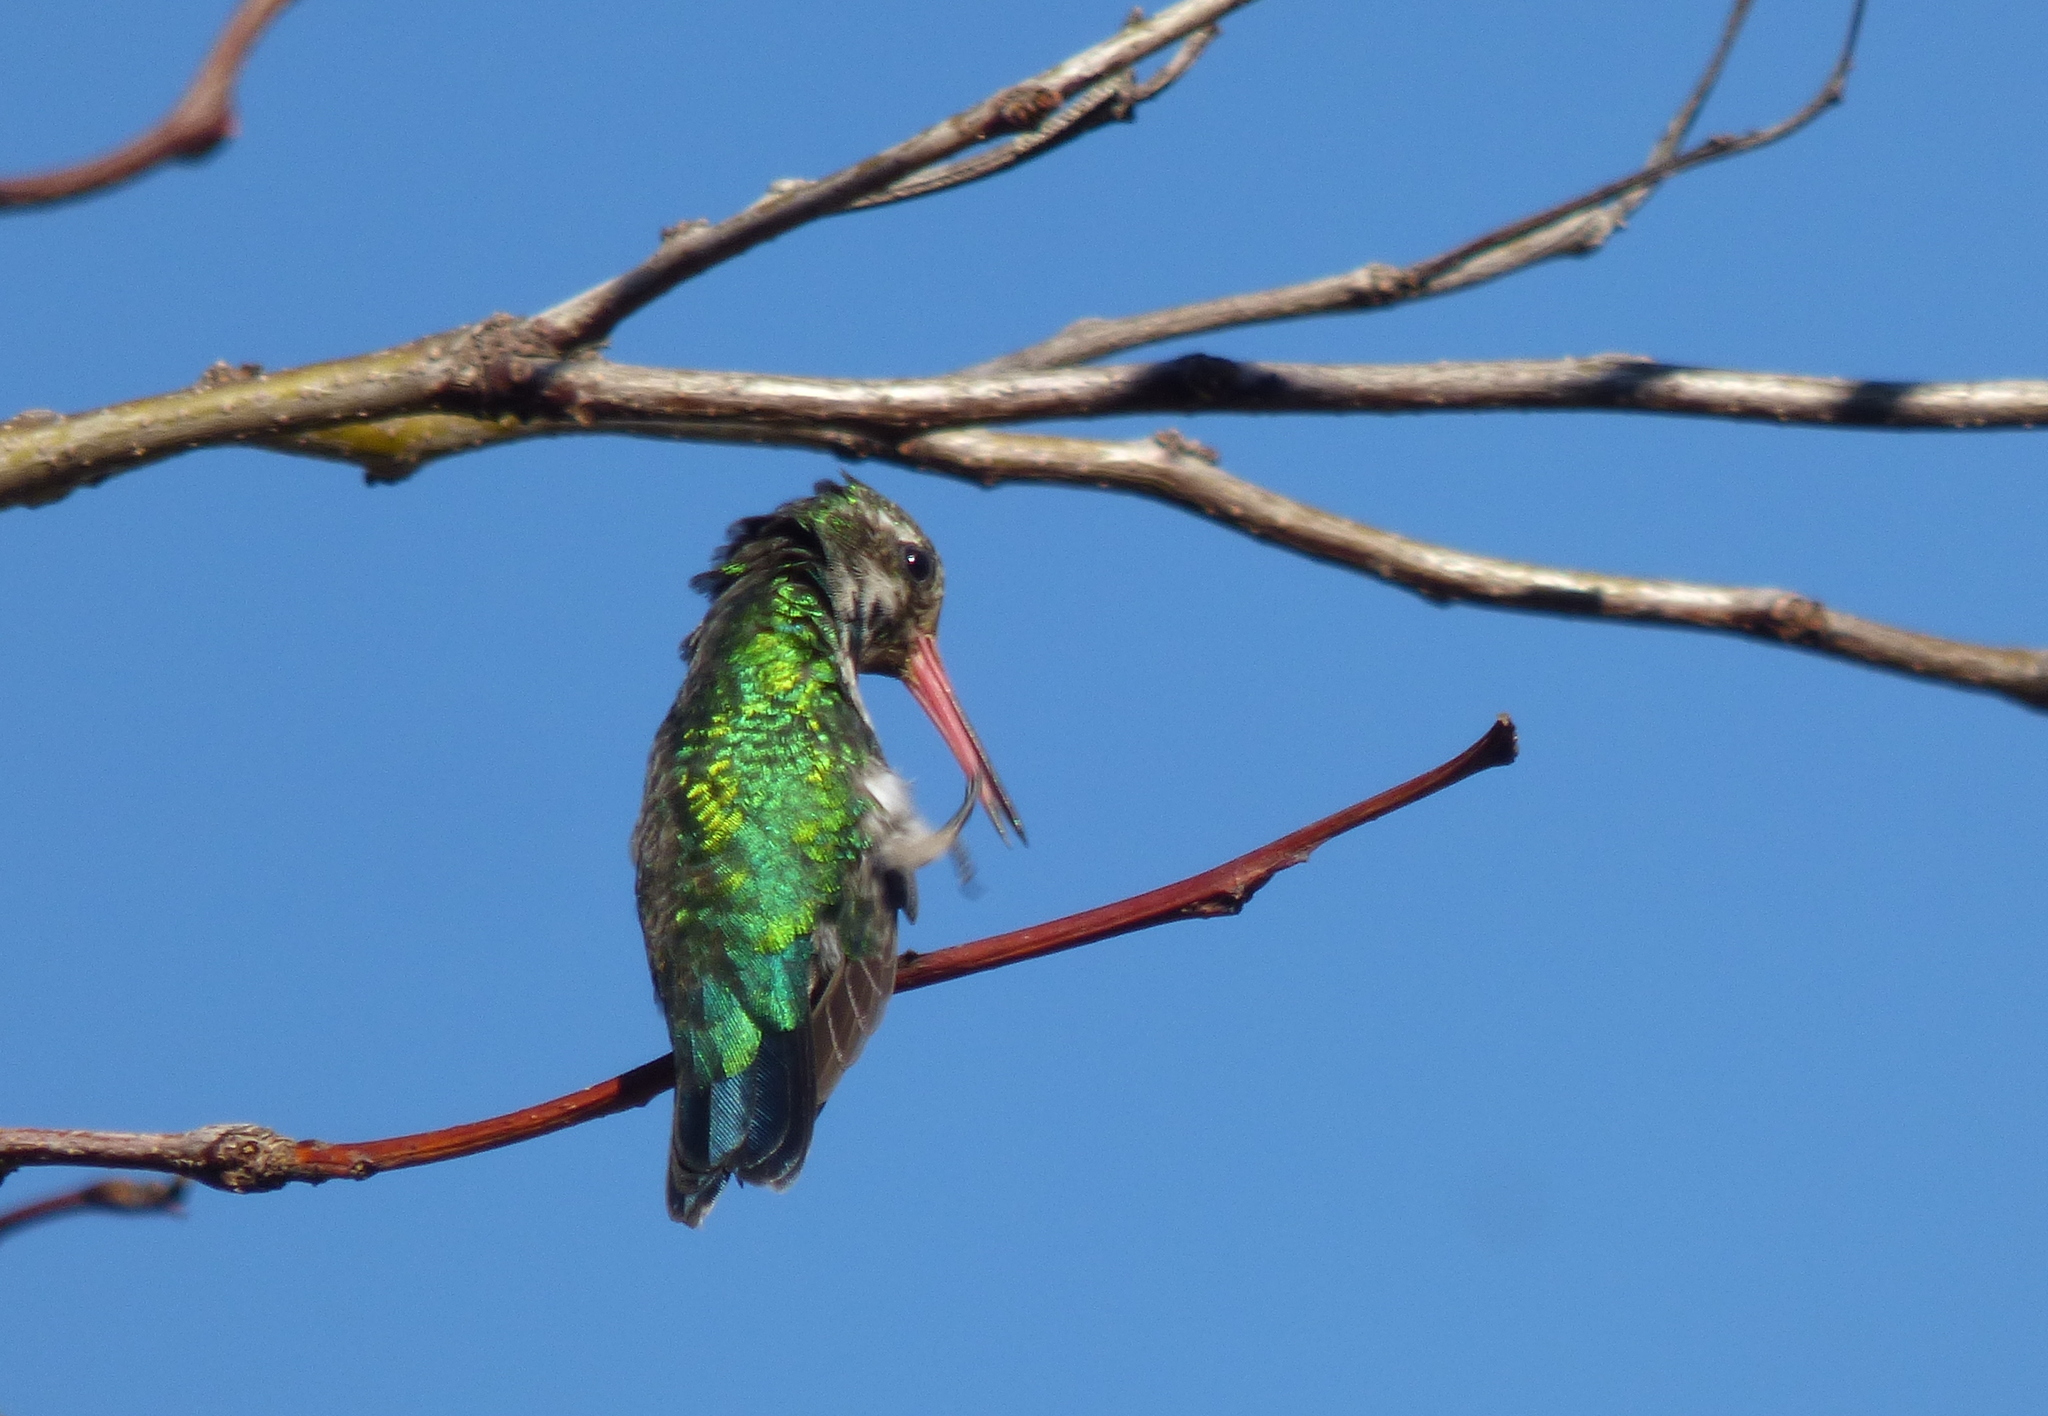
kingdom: Animalia
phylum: Chordata
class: Aves
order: Apodiformes
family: Trochilidae
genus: Chlorostilbon
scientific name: Chlorostilbon lucidus
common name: Glittering-bellied emerald
